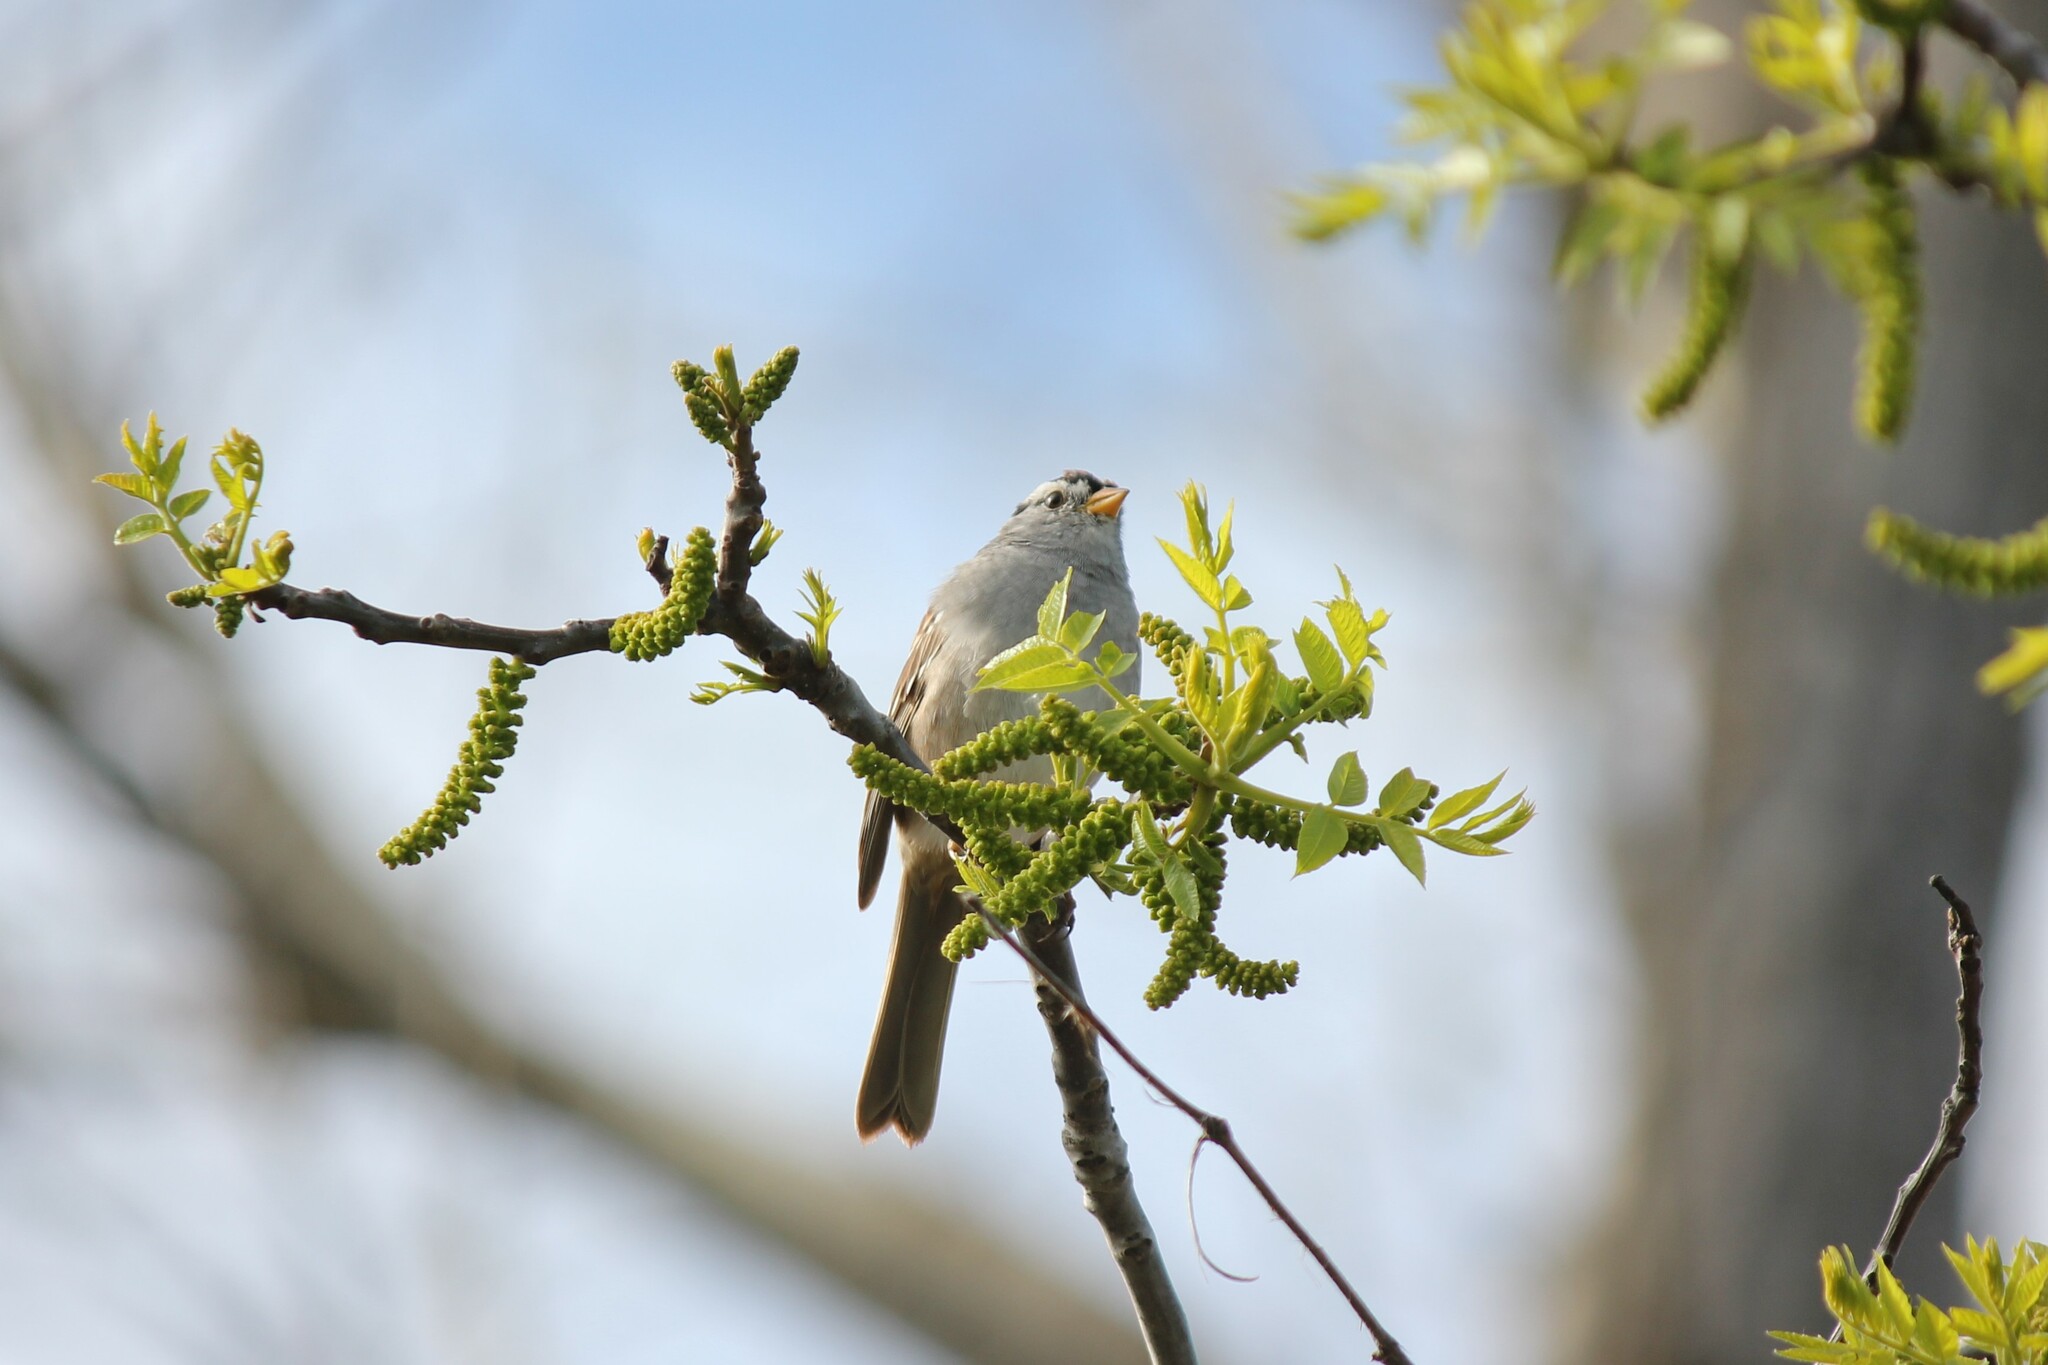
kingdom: Animalia
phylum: Chordata
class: Aves
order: Passeriformes
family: Passerellidae
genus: Zonotrichia
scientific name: Zonotrichia leucophrys
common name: White-crowned sparrow
